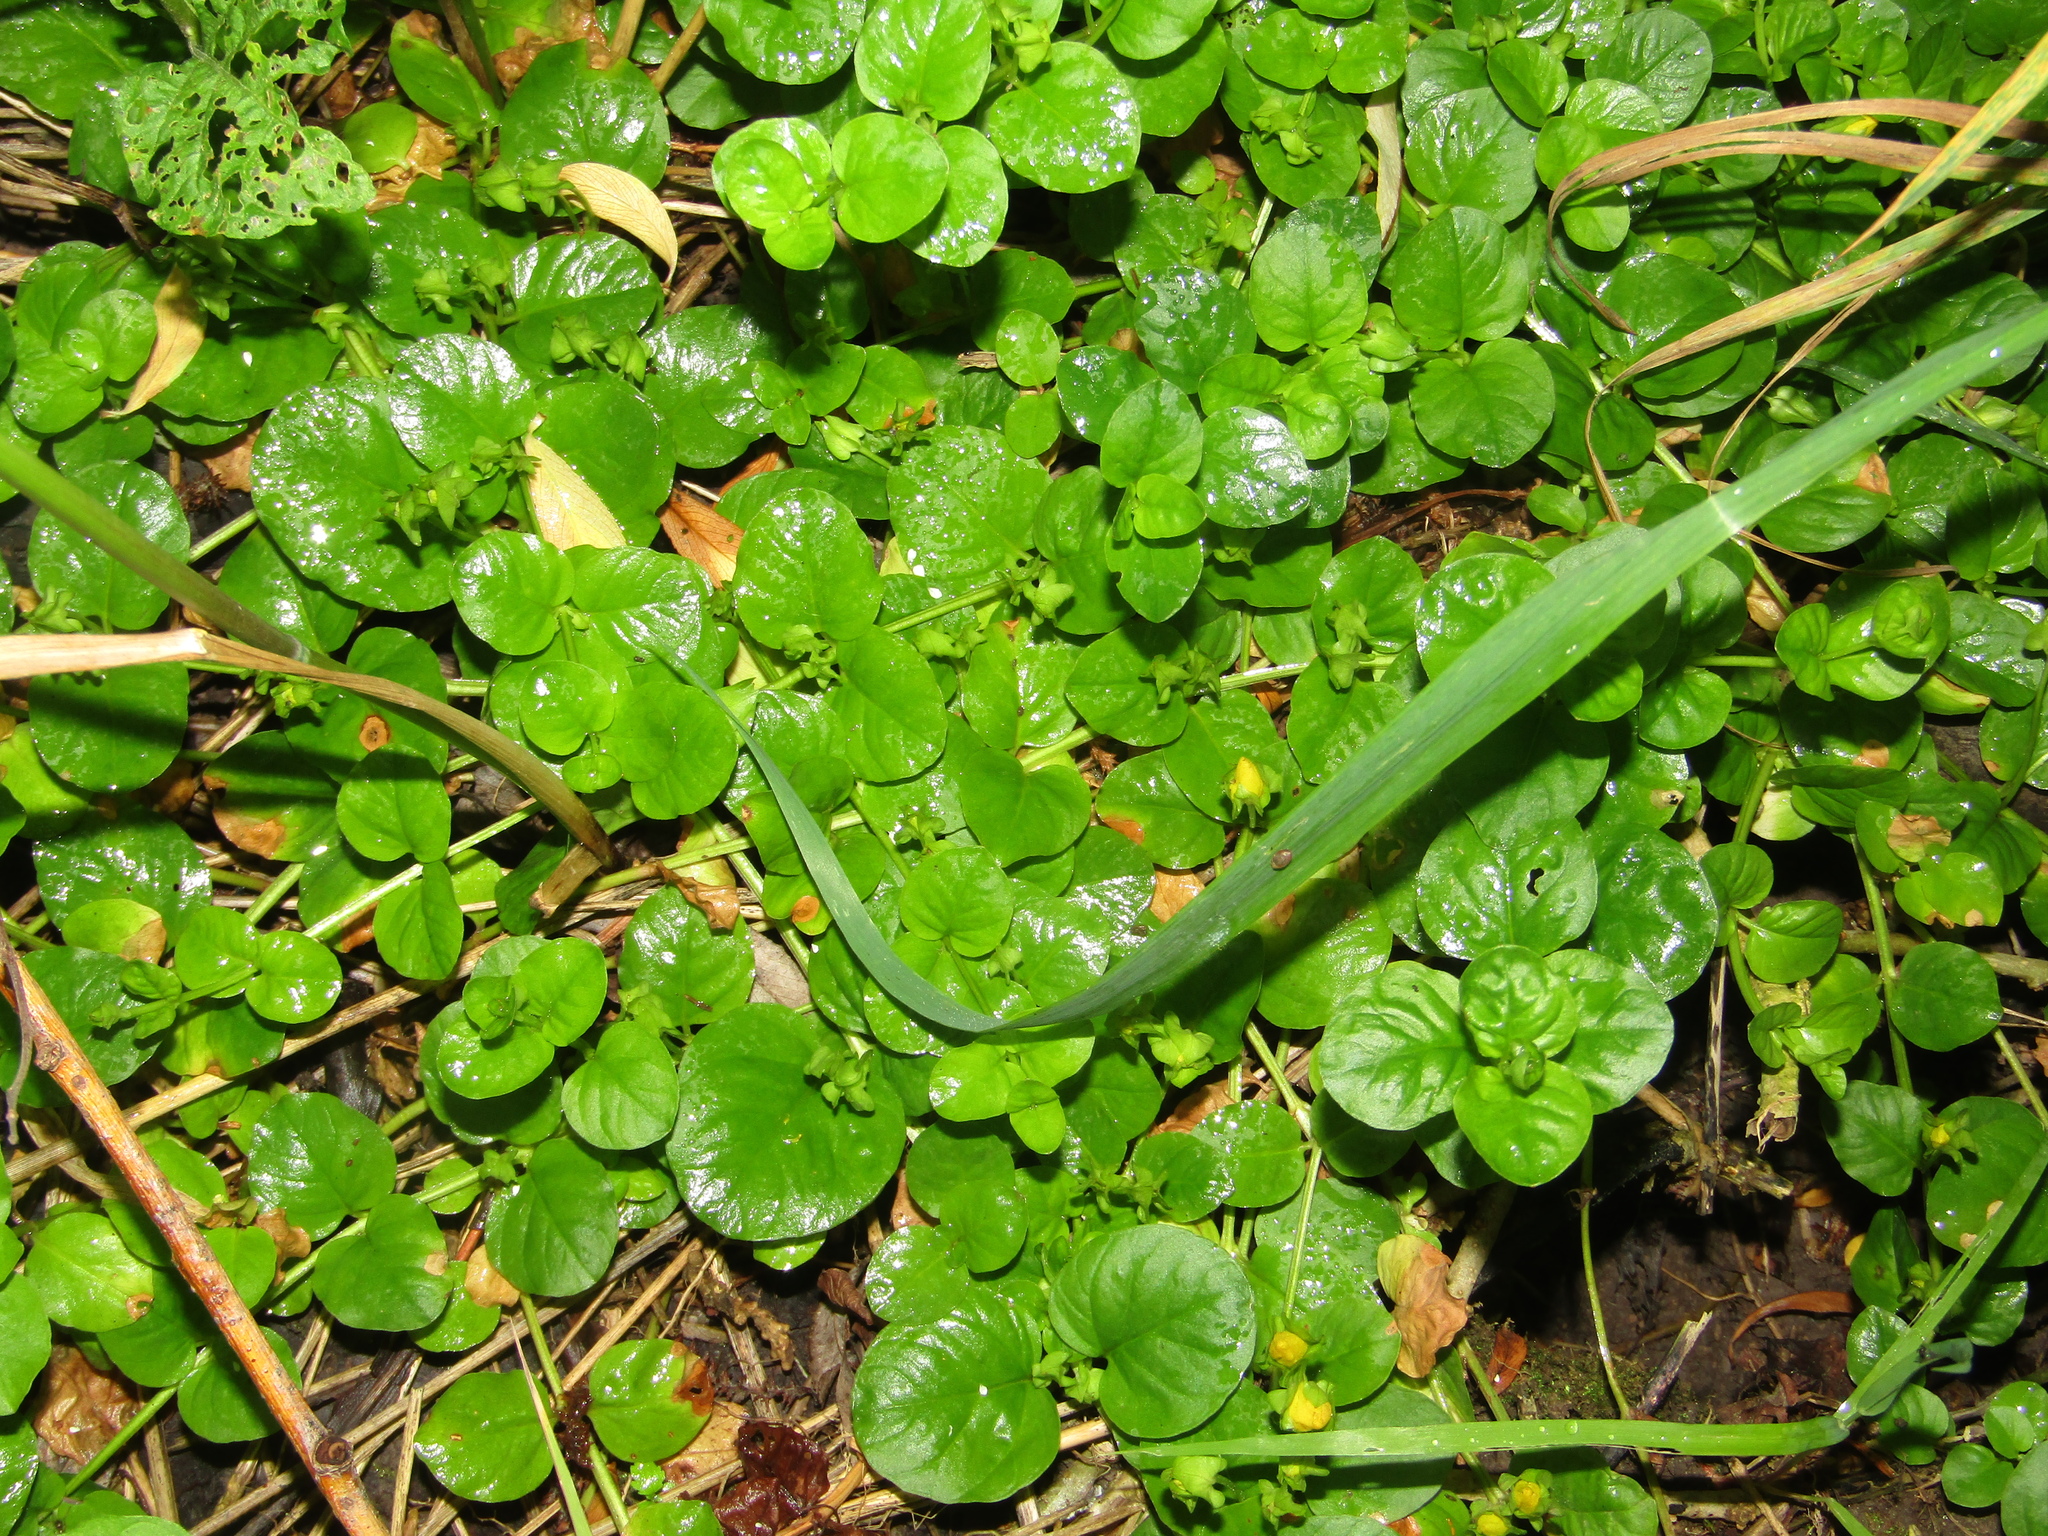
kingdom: Plantae
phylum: Tracheophyta
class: Magnoliopsida
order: Ericales
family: Primulaceae
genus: Lysimachia
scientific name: Lysimachia nummularia
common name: Moneywort
